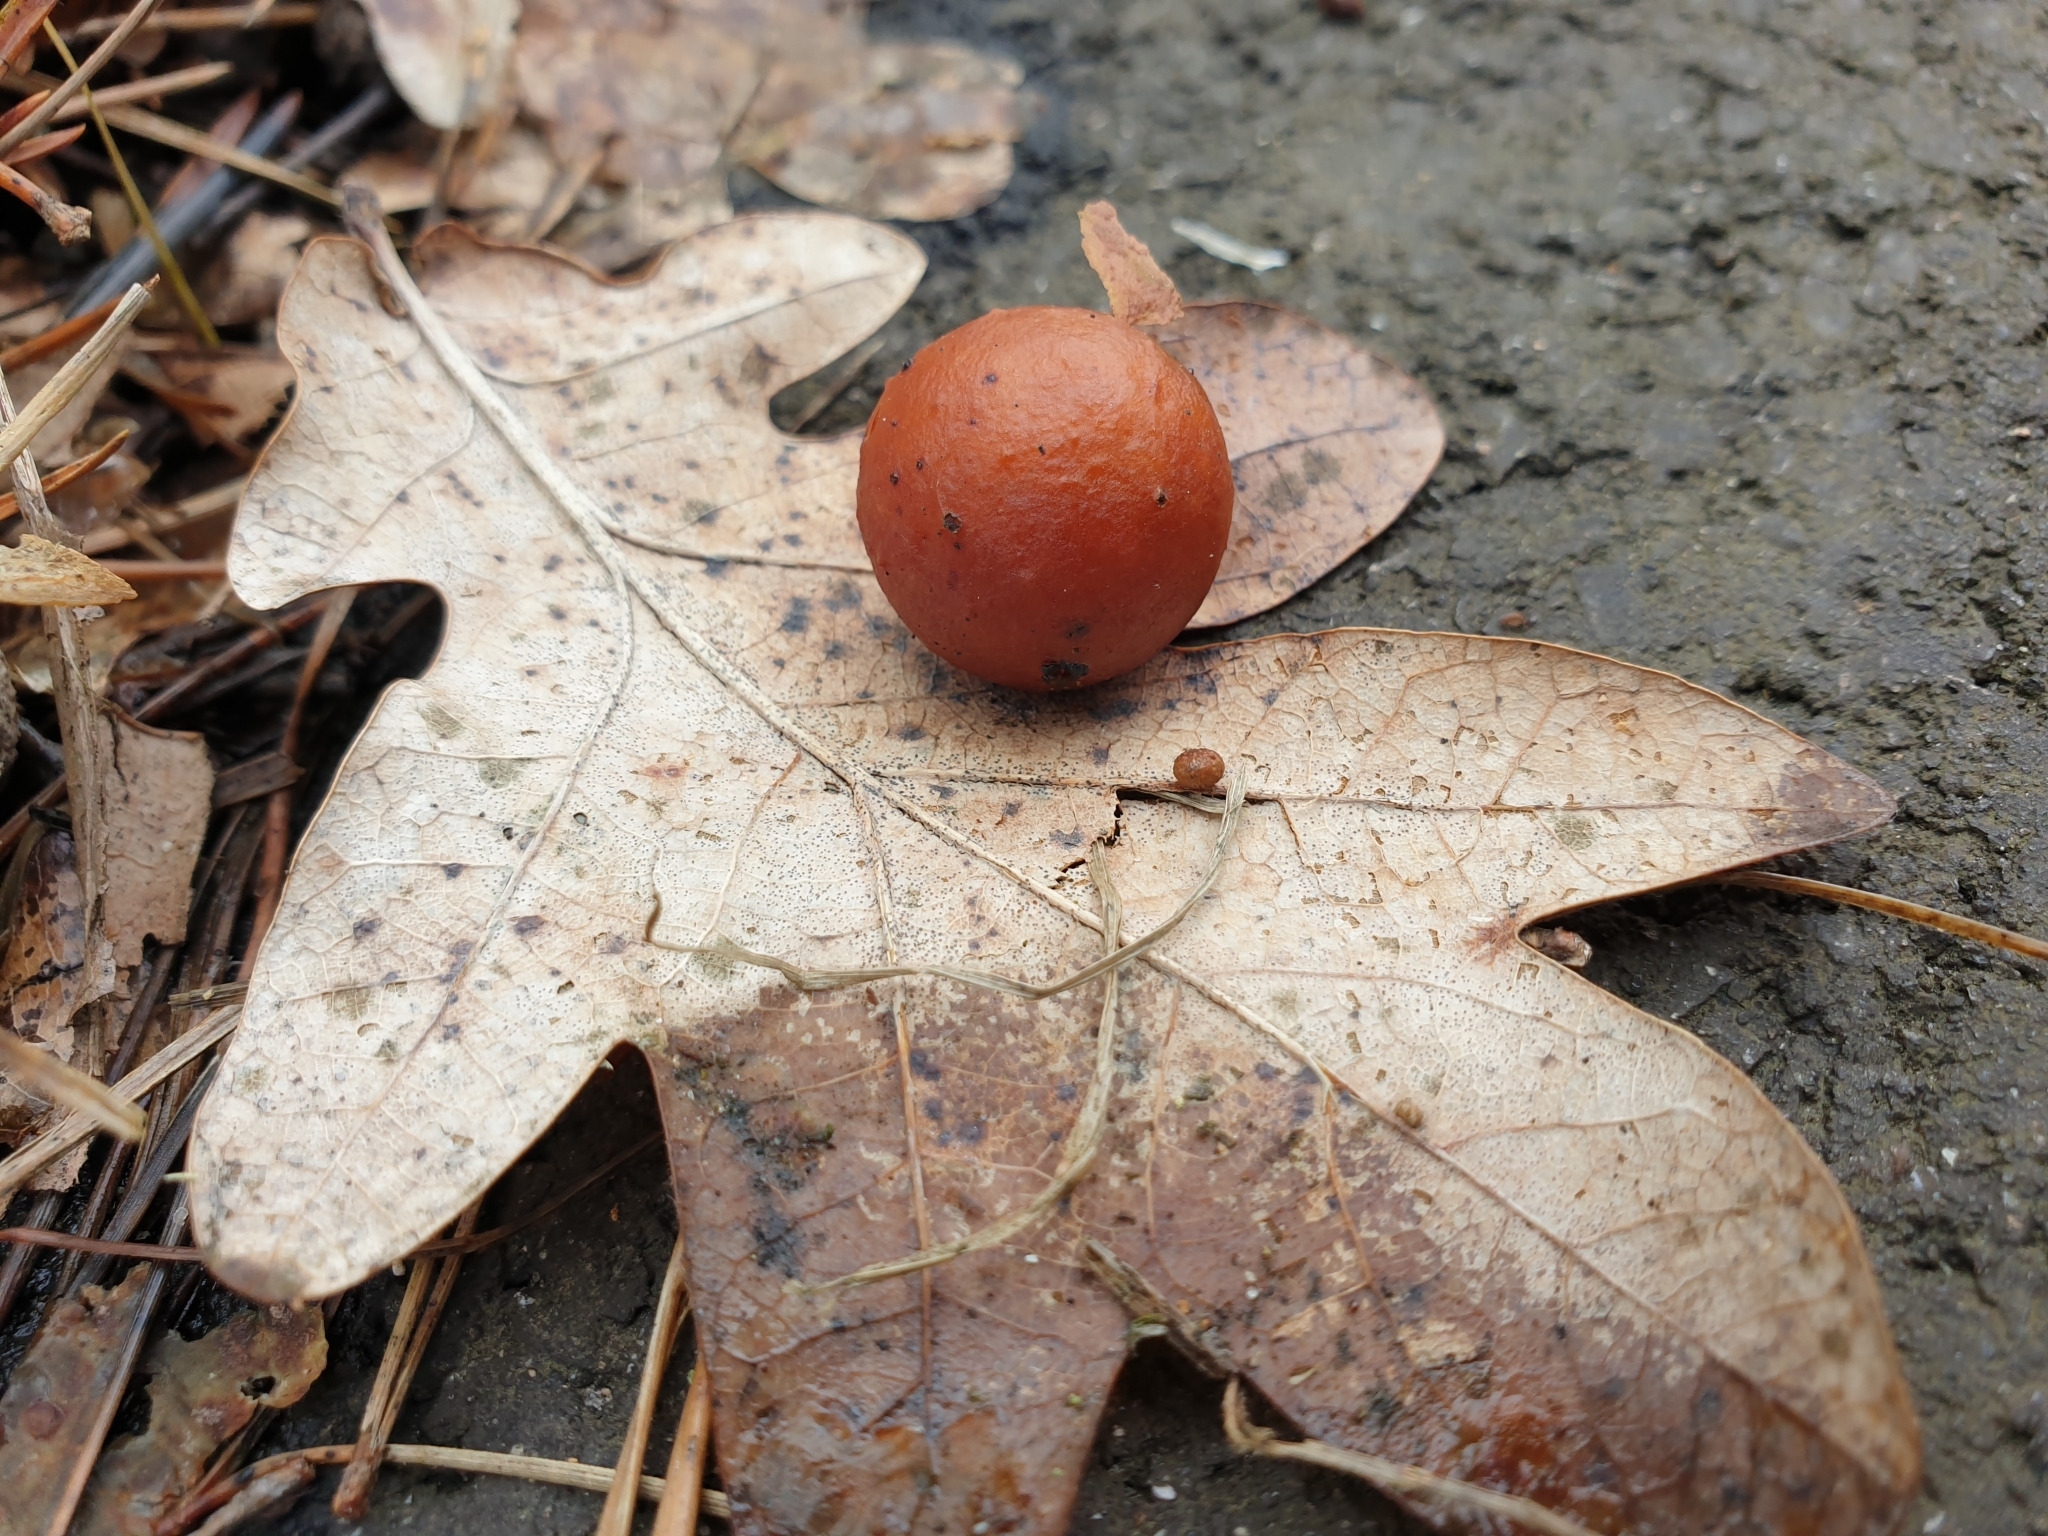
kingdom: Plantae
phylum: Tracheophyta
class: Magnoliopsida
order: Fagales
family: Fagaceae
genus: Quercus
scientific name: Quercus robur
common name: Pedunculate oak
